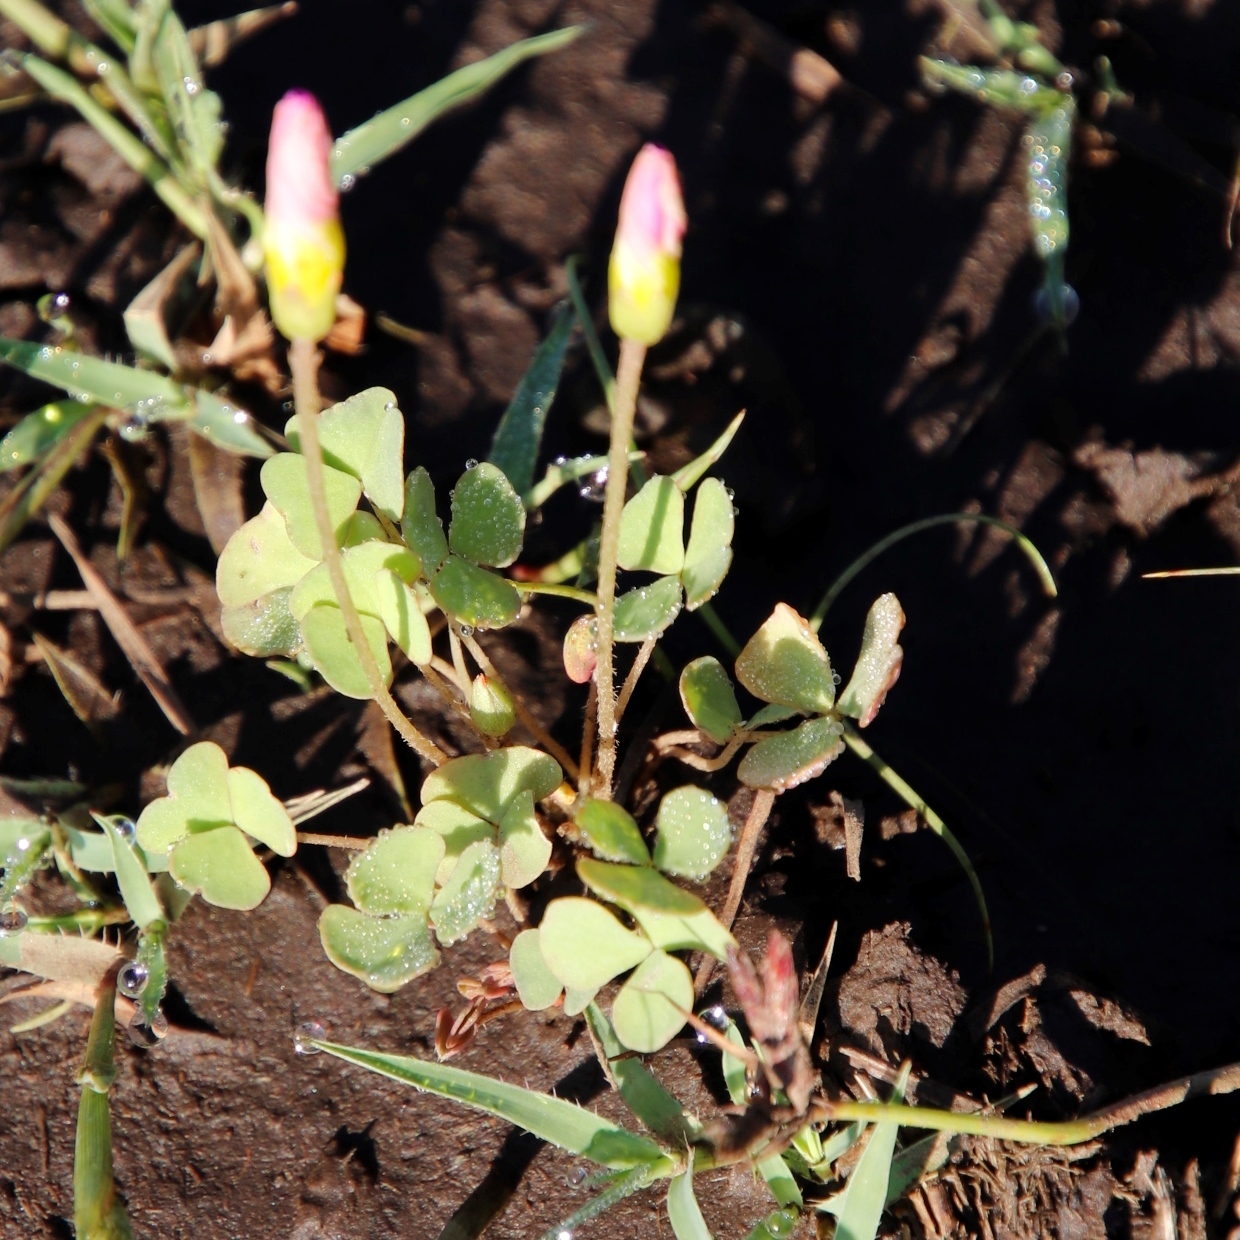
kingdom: Plantae
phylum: Tracheophyta
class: Magnoliopsida
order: Oxalidales
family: Oxalidaceae
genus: Oxalis
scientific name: Oxalis obliquifolia
